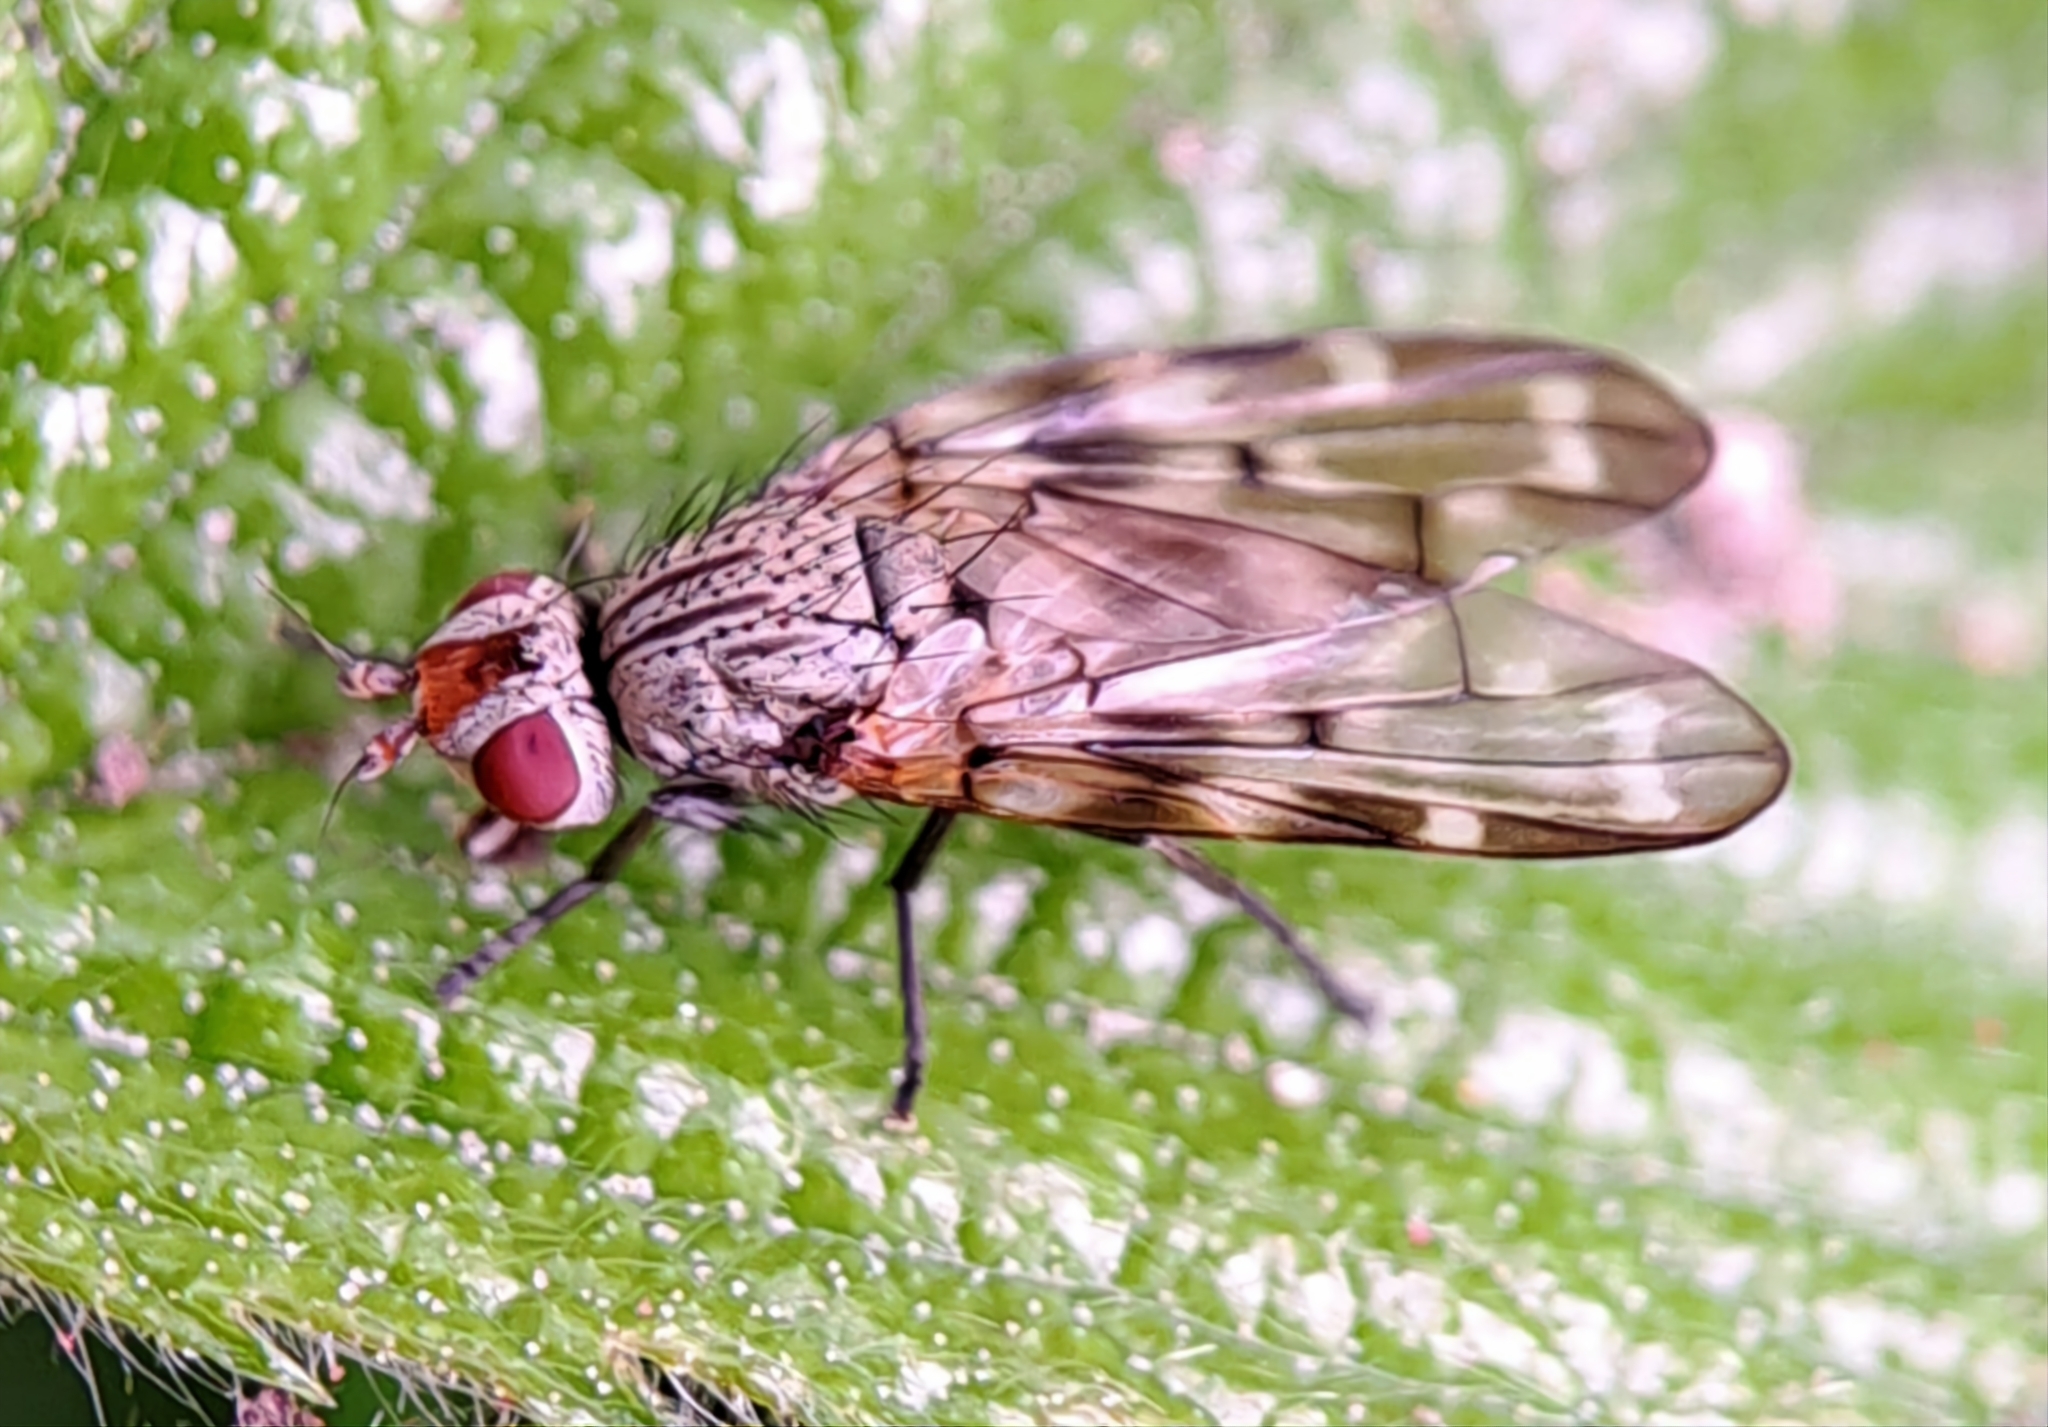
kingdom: Animalia
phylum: Arthropoda
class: Insecta
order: Diptera
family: Ulidiidae
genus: Otites
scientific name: Otites guttata
